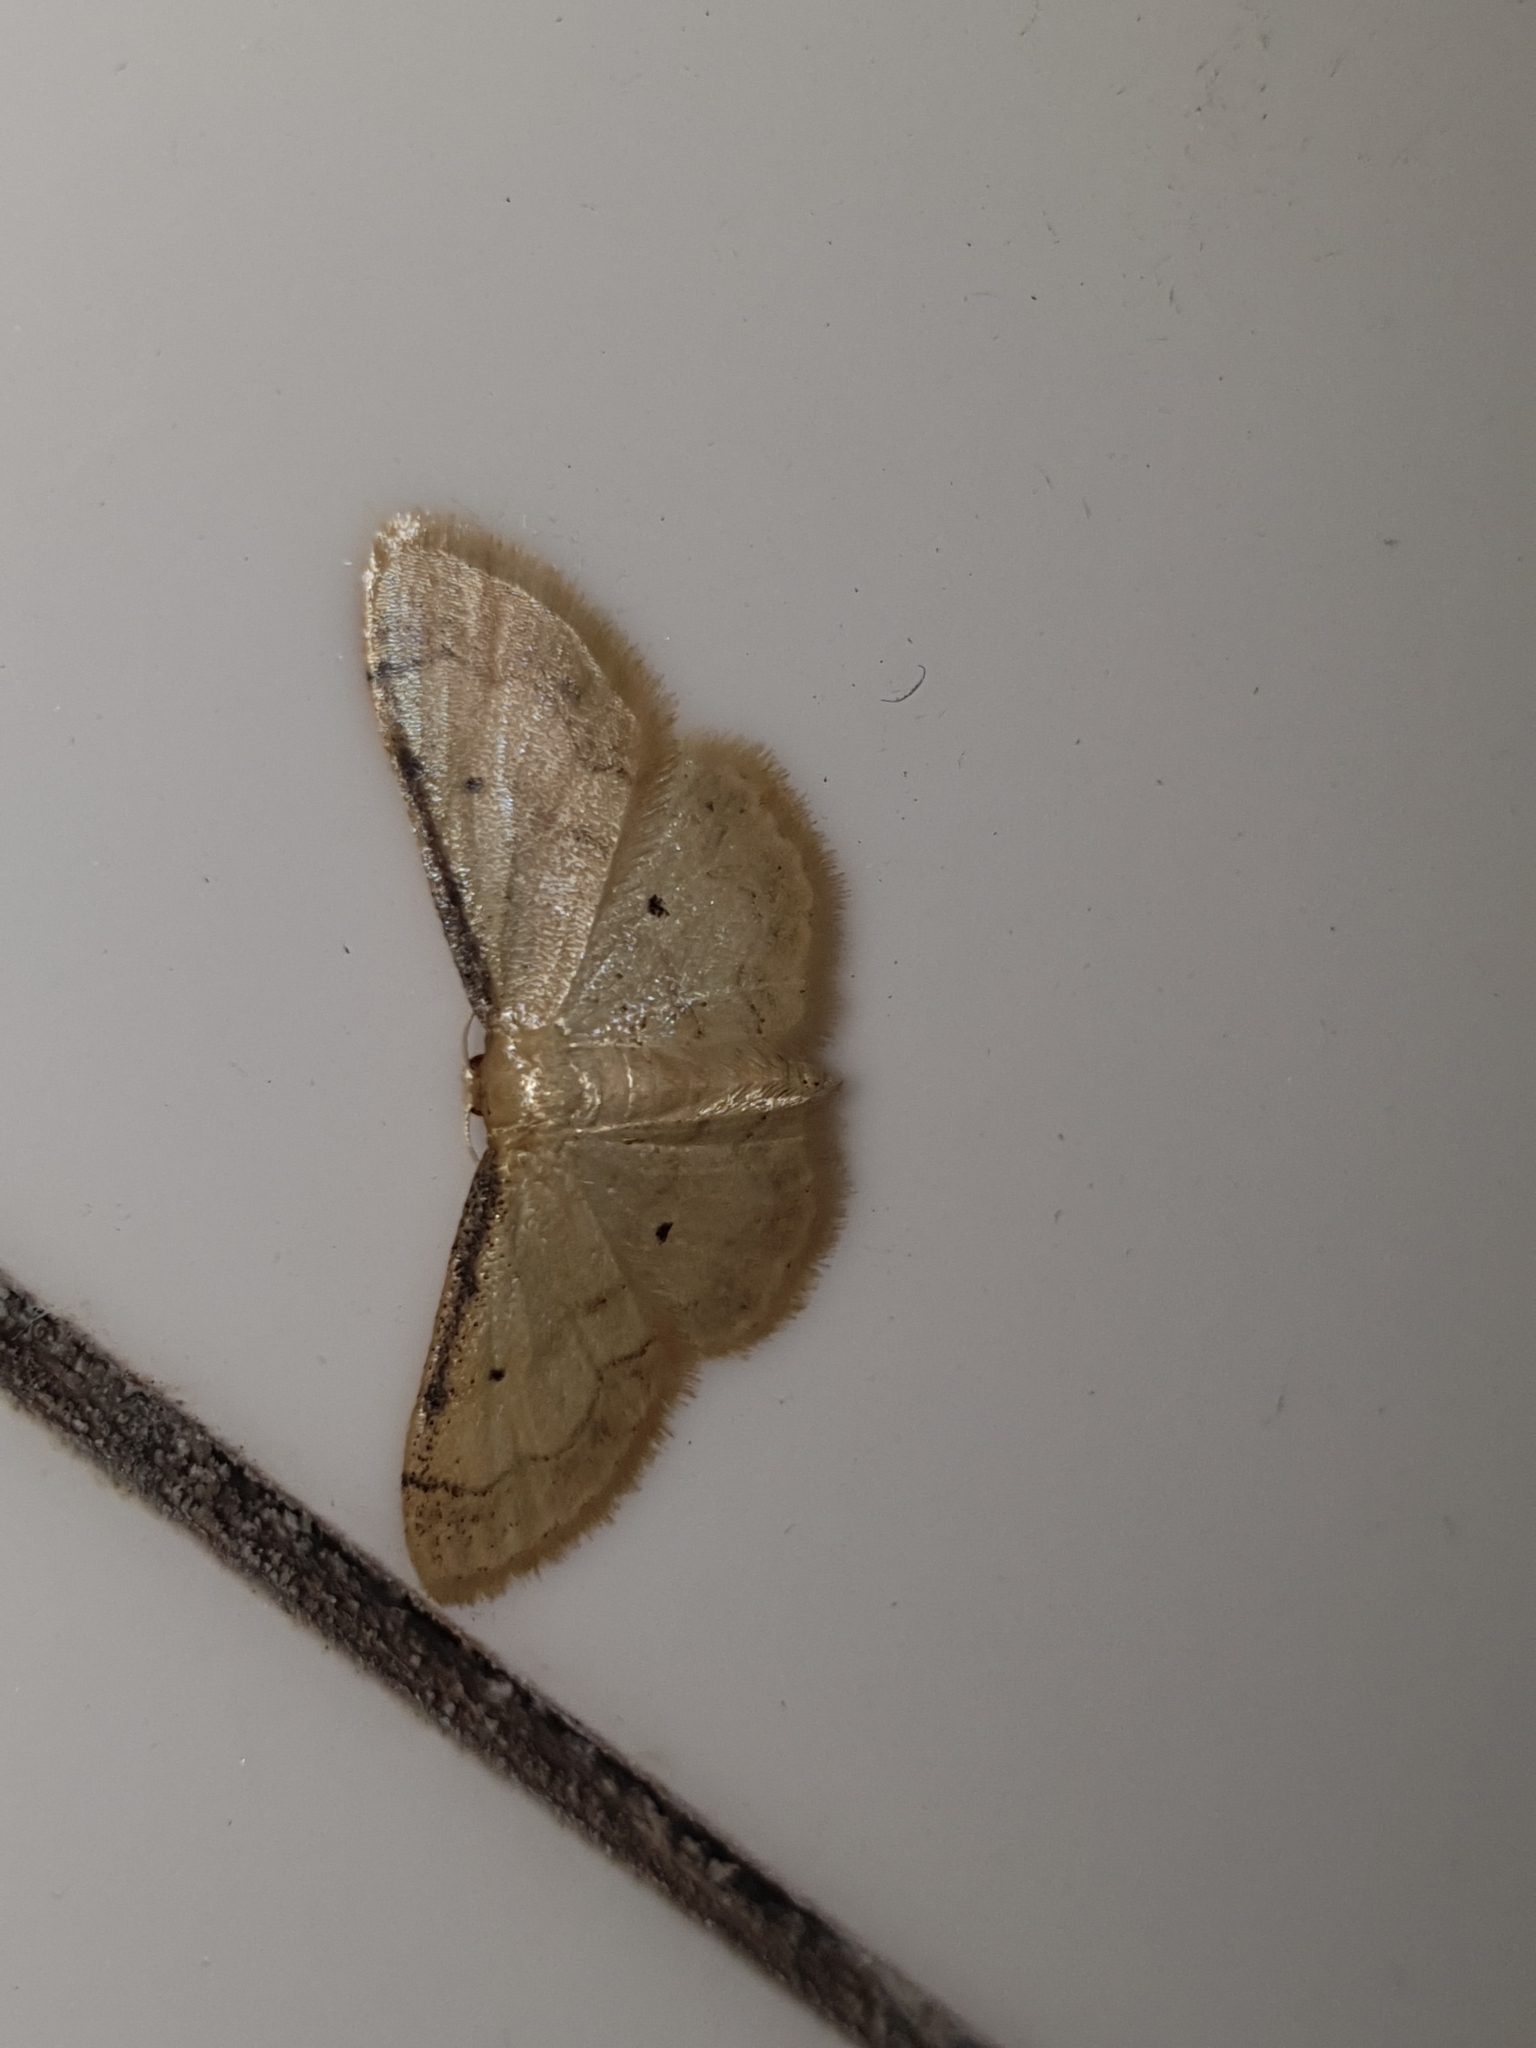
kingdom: Animalia
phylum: Arthropoda
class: Insecta
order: Lepidoptera
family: Geometridae
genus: Idaea
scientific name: Idaea politaria
